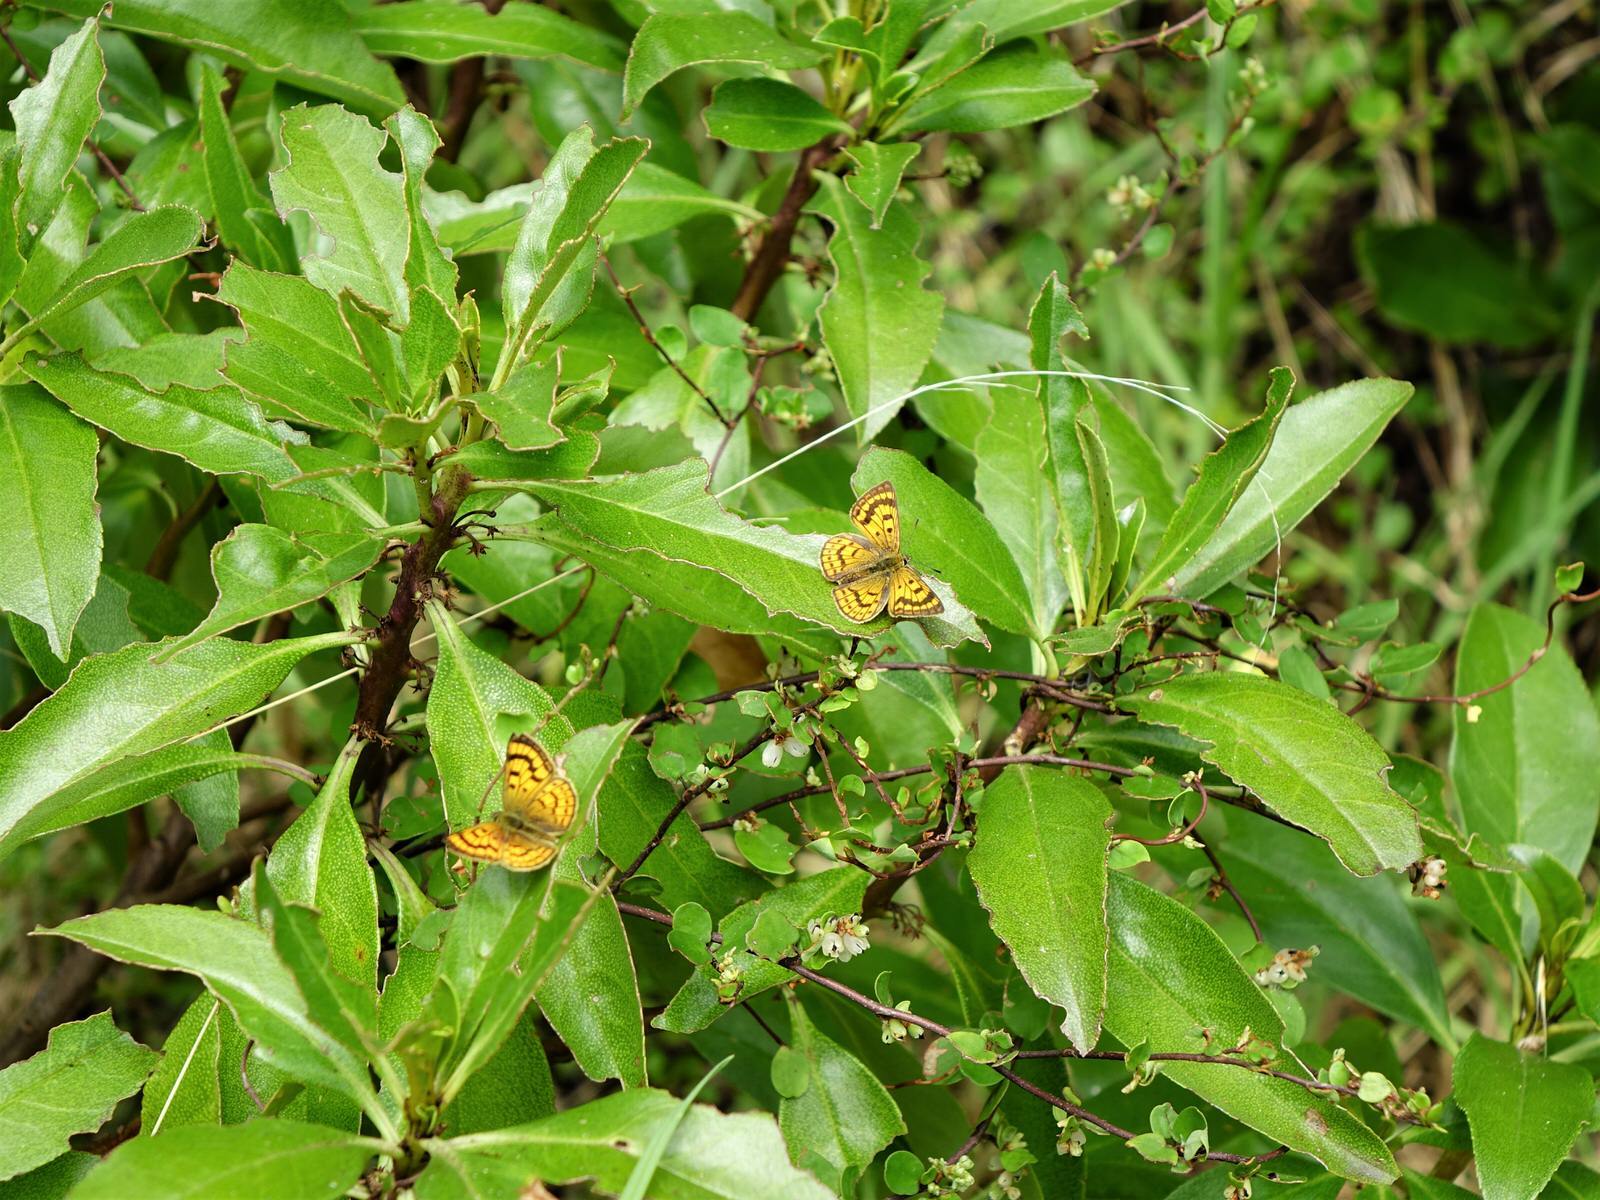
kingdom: Animalia
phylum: Arthropoda
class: Insecta
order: Lepidoptera
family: Lycaenidae
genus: Lycaena
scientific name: Lycaena salustius
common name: North island coastal copper
